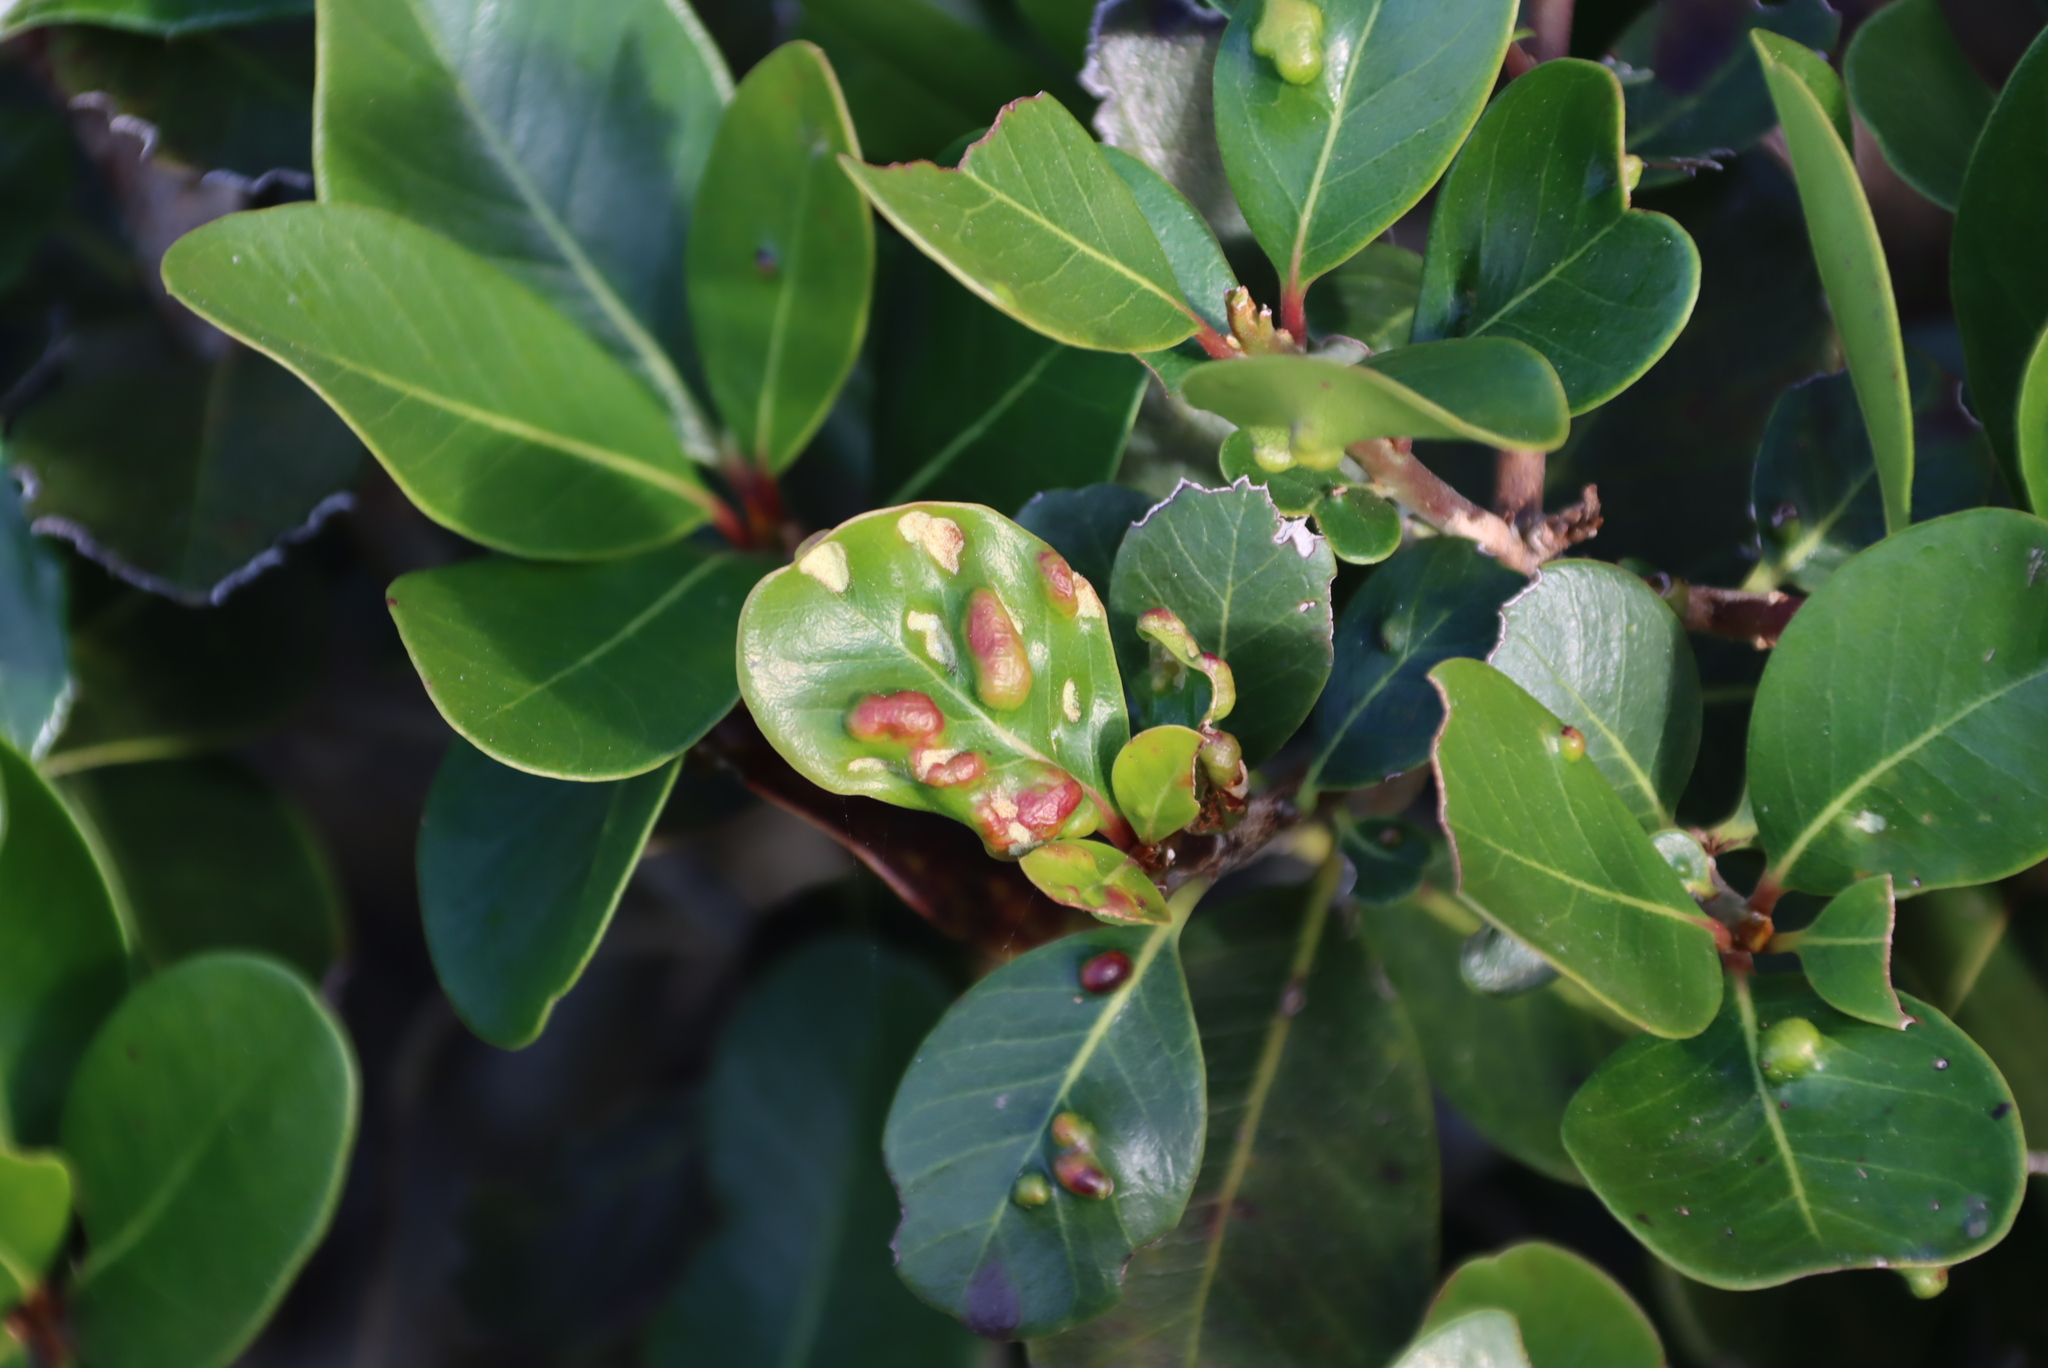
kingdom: Animalia
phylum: Arthropoda
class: Arachnida
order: Trombidiformes
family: Eriophyidae
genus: Eriophyes
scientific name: Eriophyes
